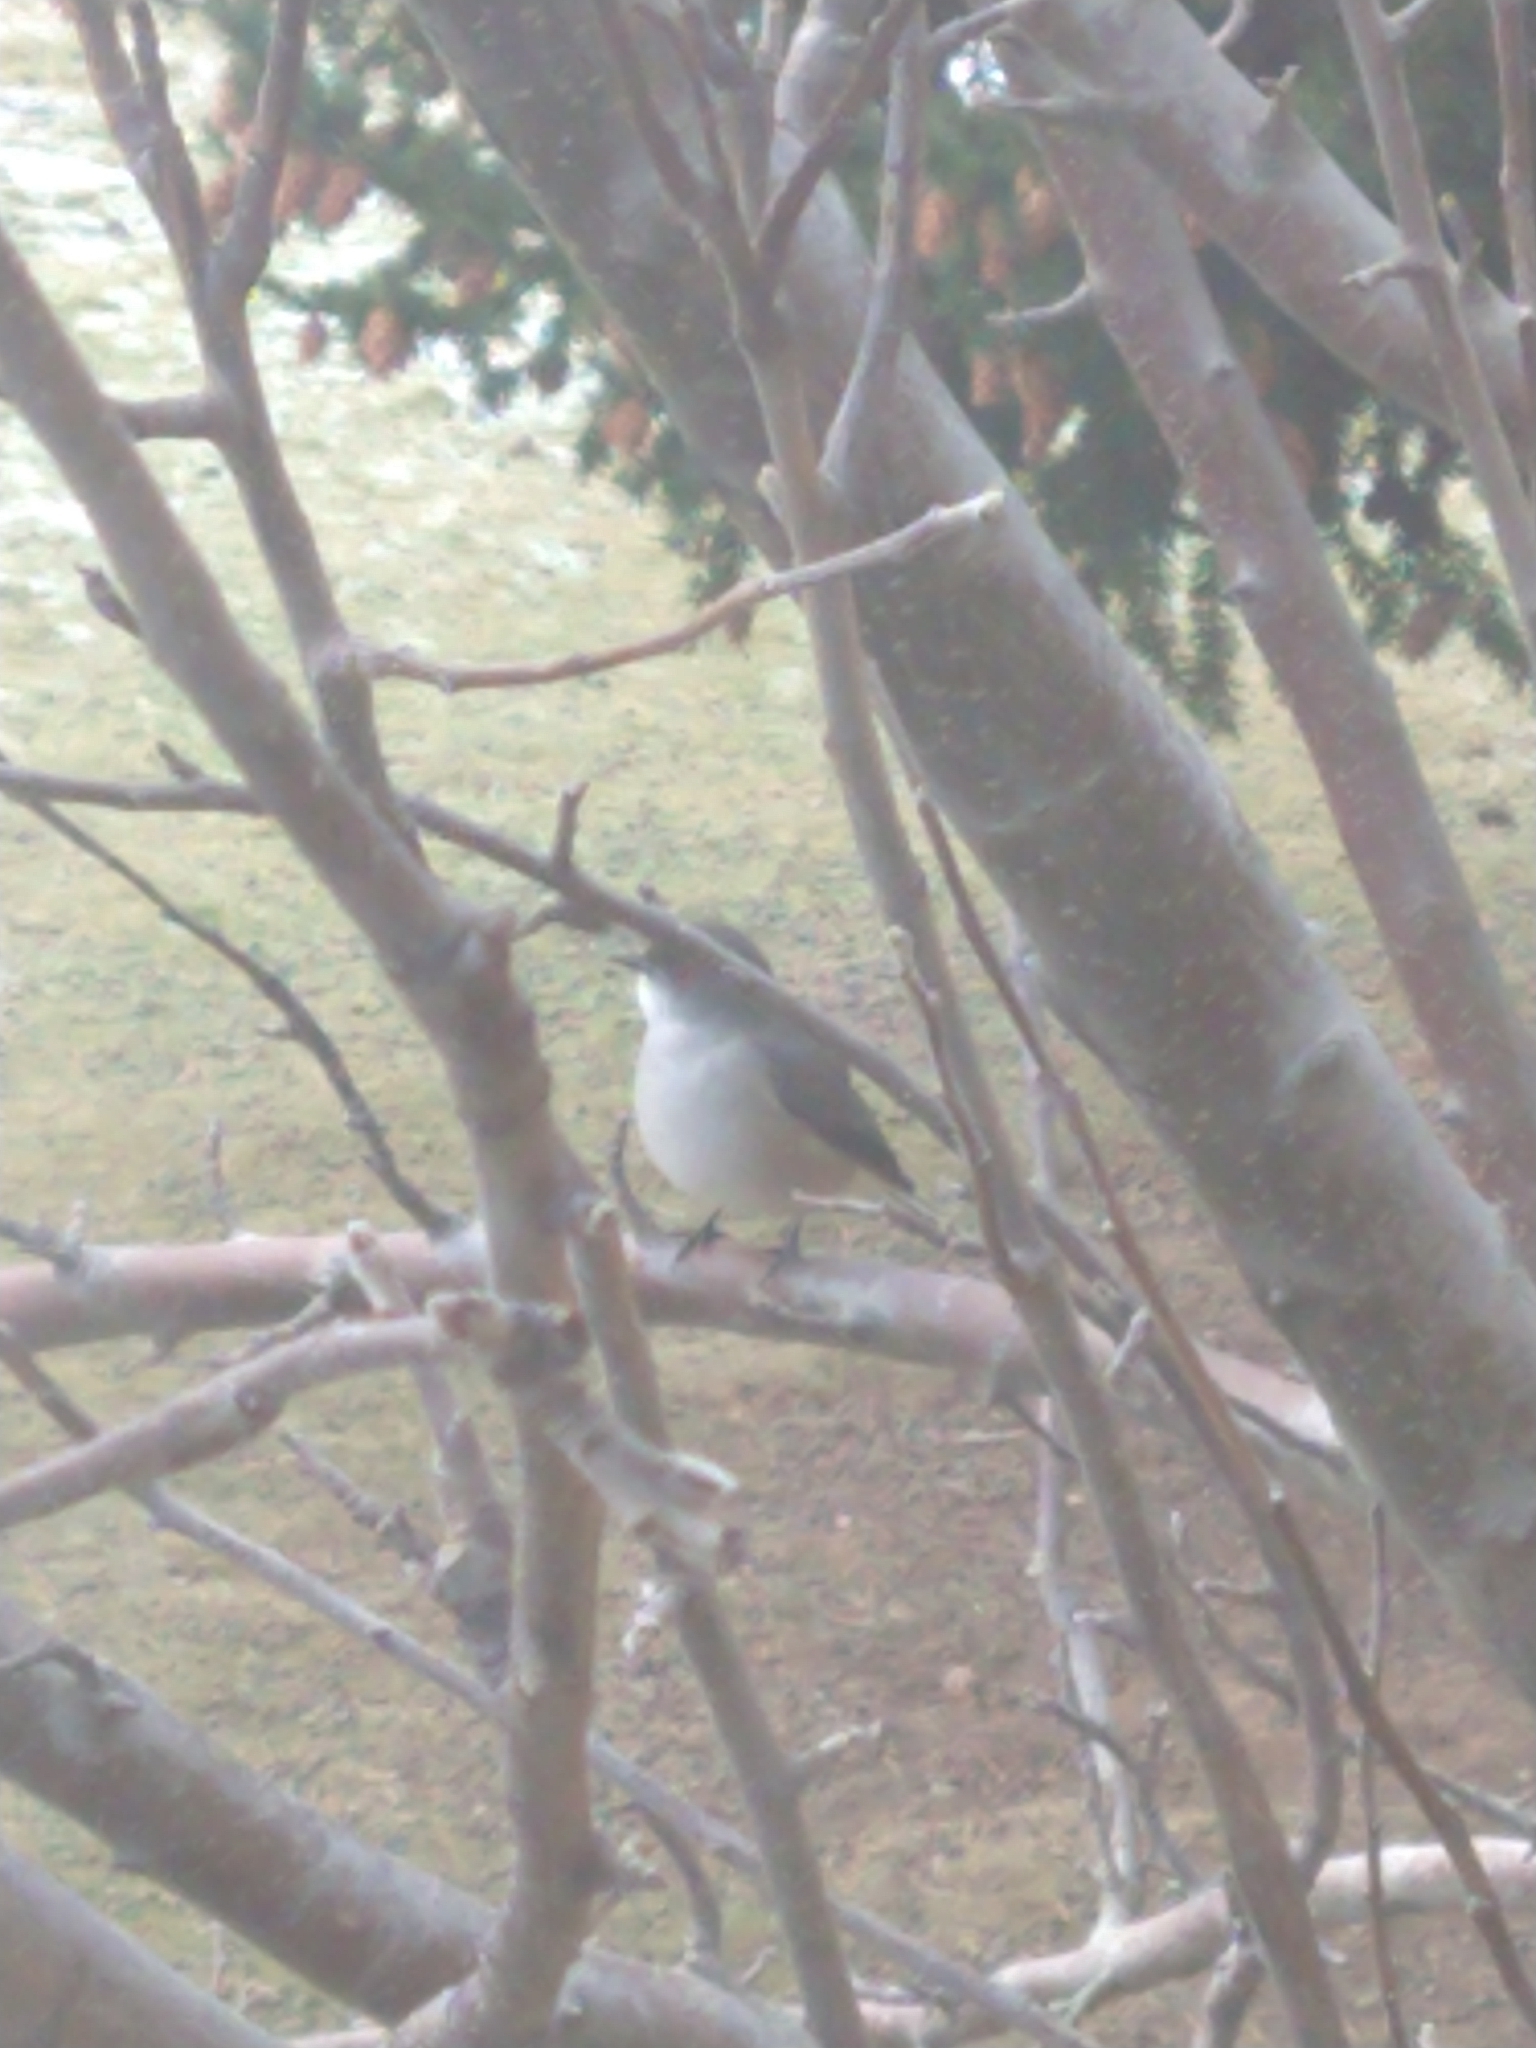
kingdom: Animalia
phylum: Chordata
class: Aves
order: Passeriformes
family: Tyrannidae
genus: Xolmis
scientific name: Xolmis pyrope
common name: Fire-eyed diucon
